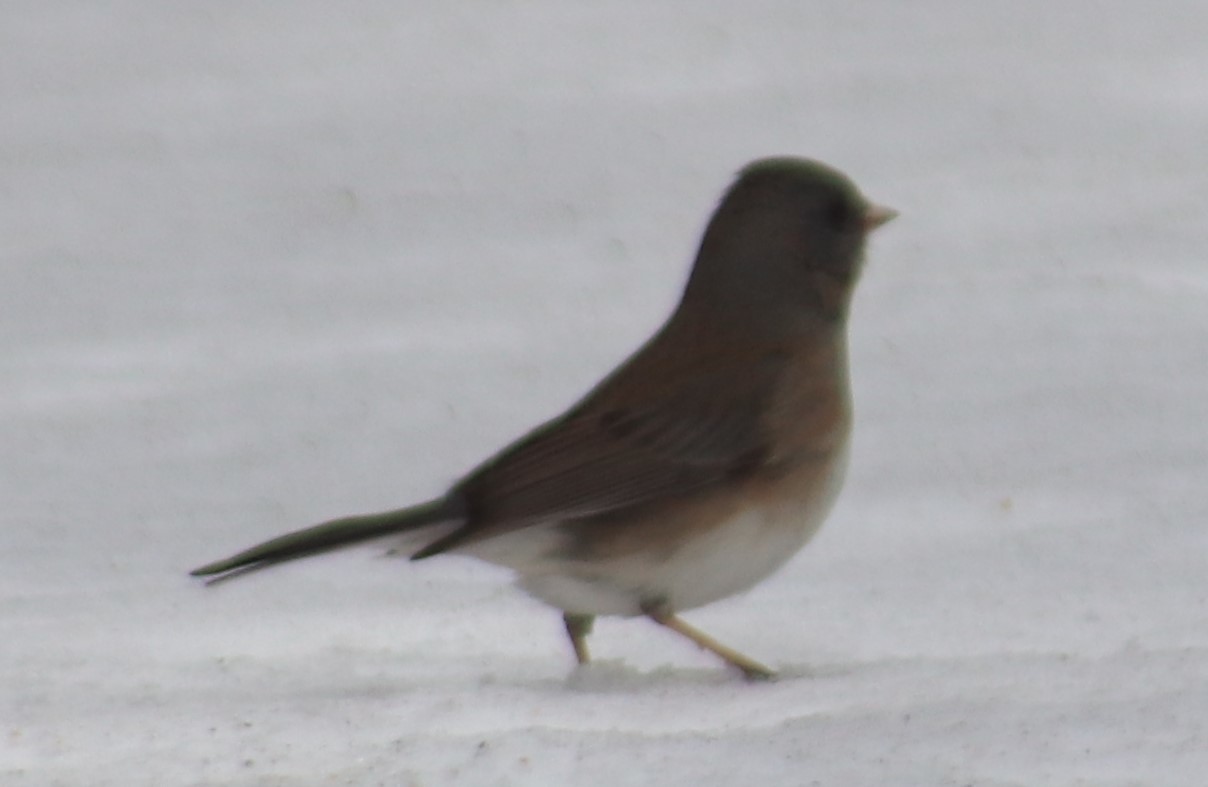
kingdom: Animalia
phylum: Chordata
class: Aves
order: Passeriformes
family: Passerellidae
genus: Junco
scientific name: Junco hyemalis
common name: Dark-eyed junco
